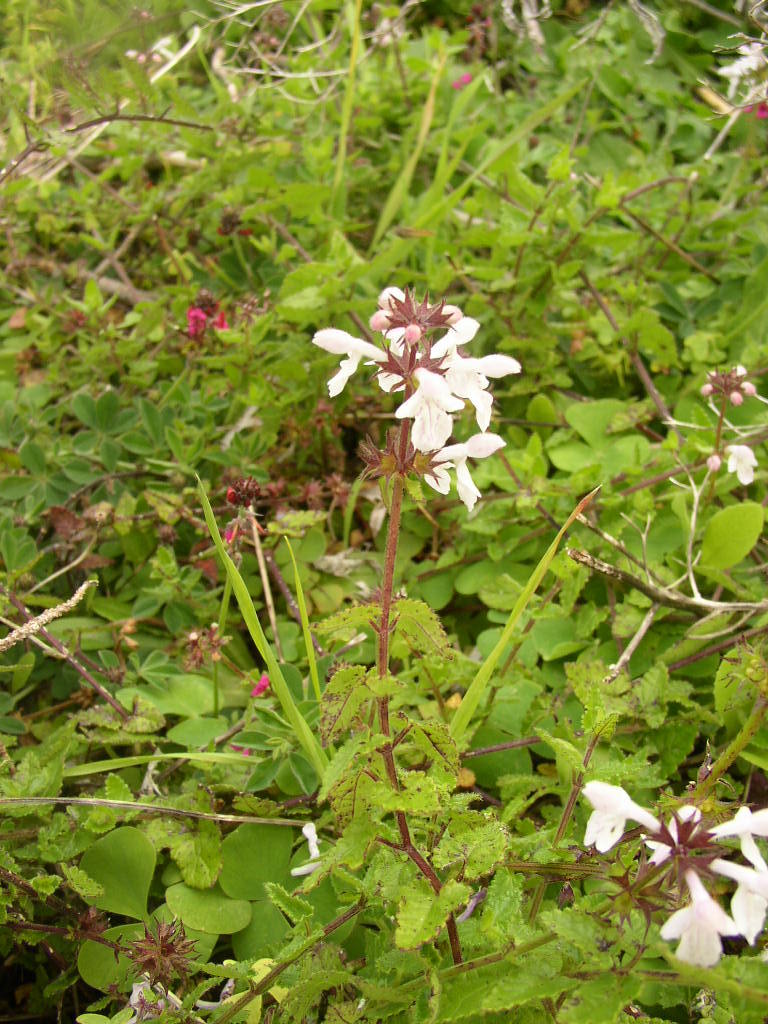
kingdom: Plantae
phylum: Tracheophyta
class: Magnoliopsida
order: Lamiales
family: Lamiaceae
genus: Stachys
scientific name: Stachys aethiopica
